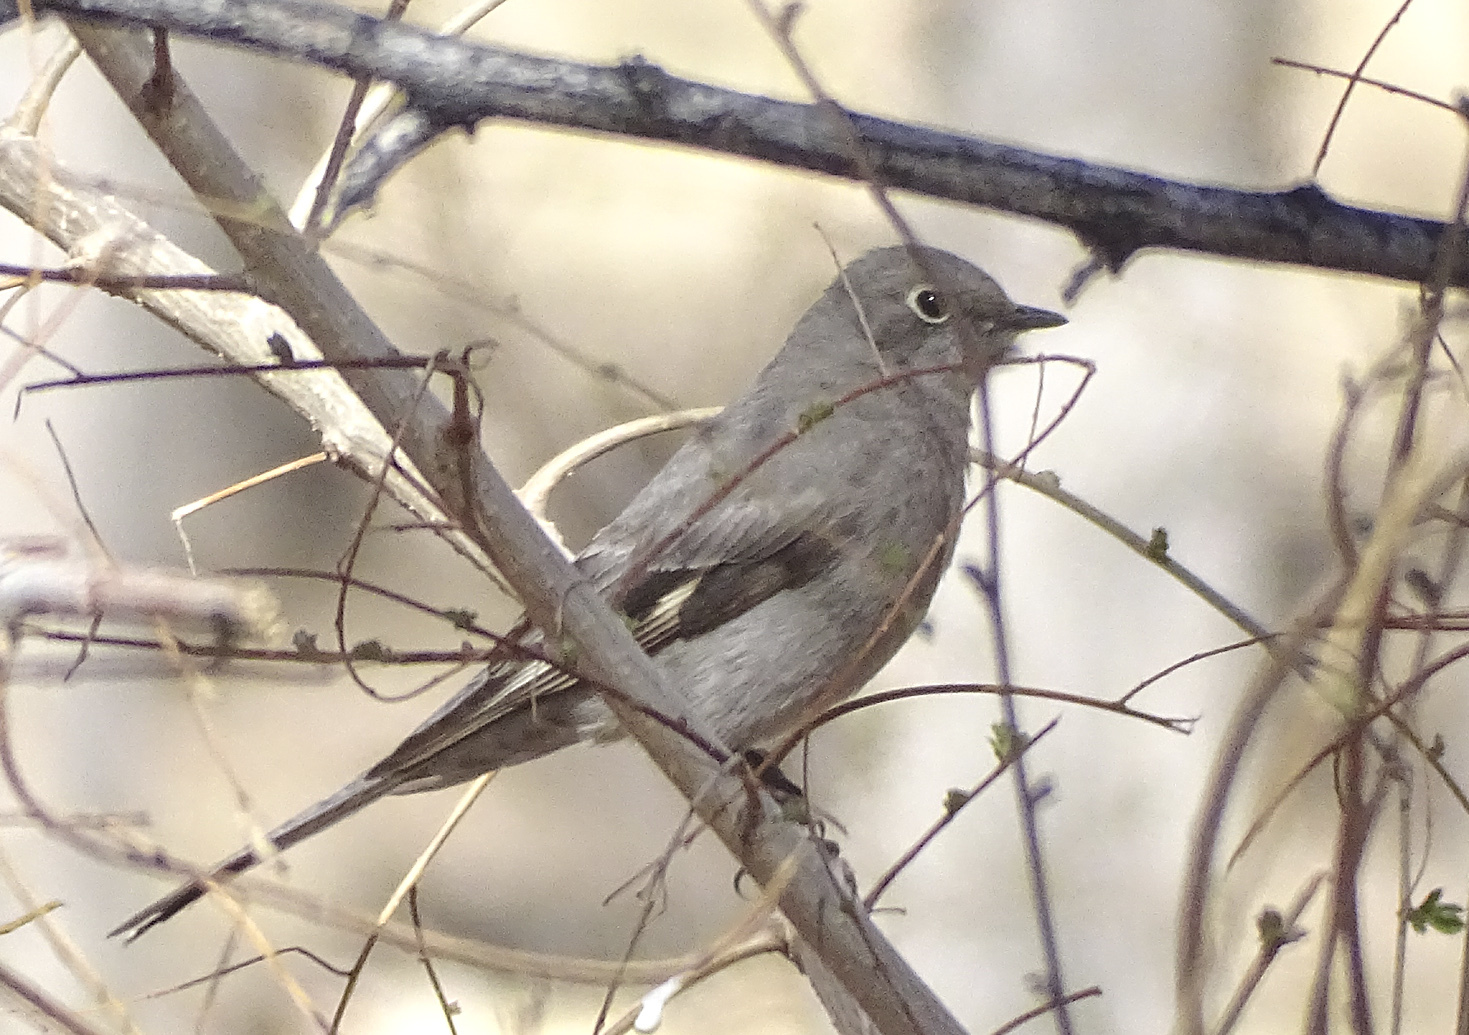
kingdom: Animalia
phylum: Chordata
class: Aves
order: Passeriformes
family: Turdidae
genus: Myadestes
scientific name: Myadestes townsendi
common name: Townsend's solitaire
